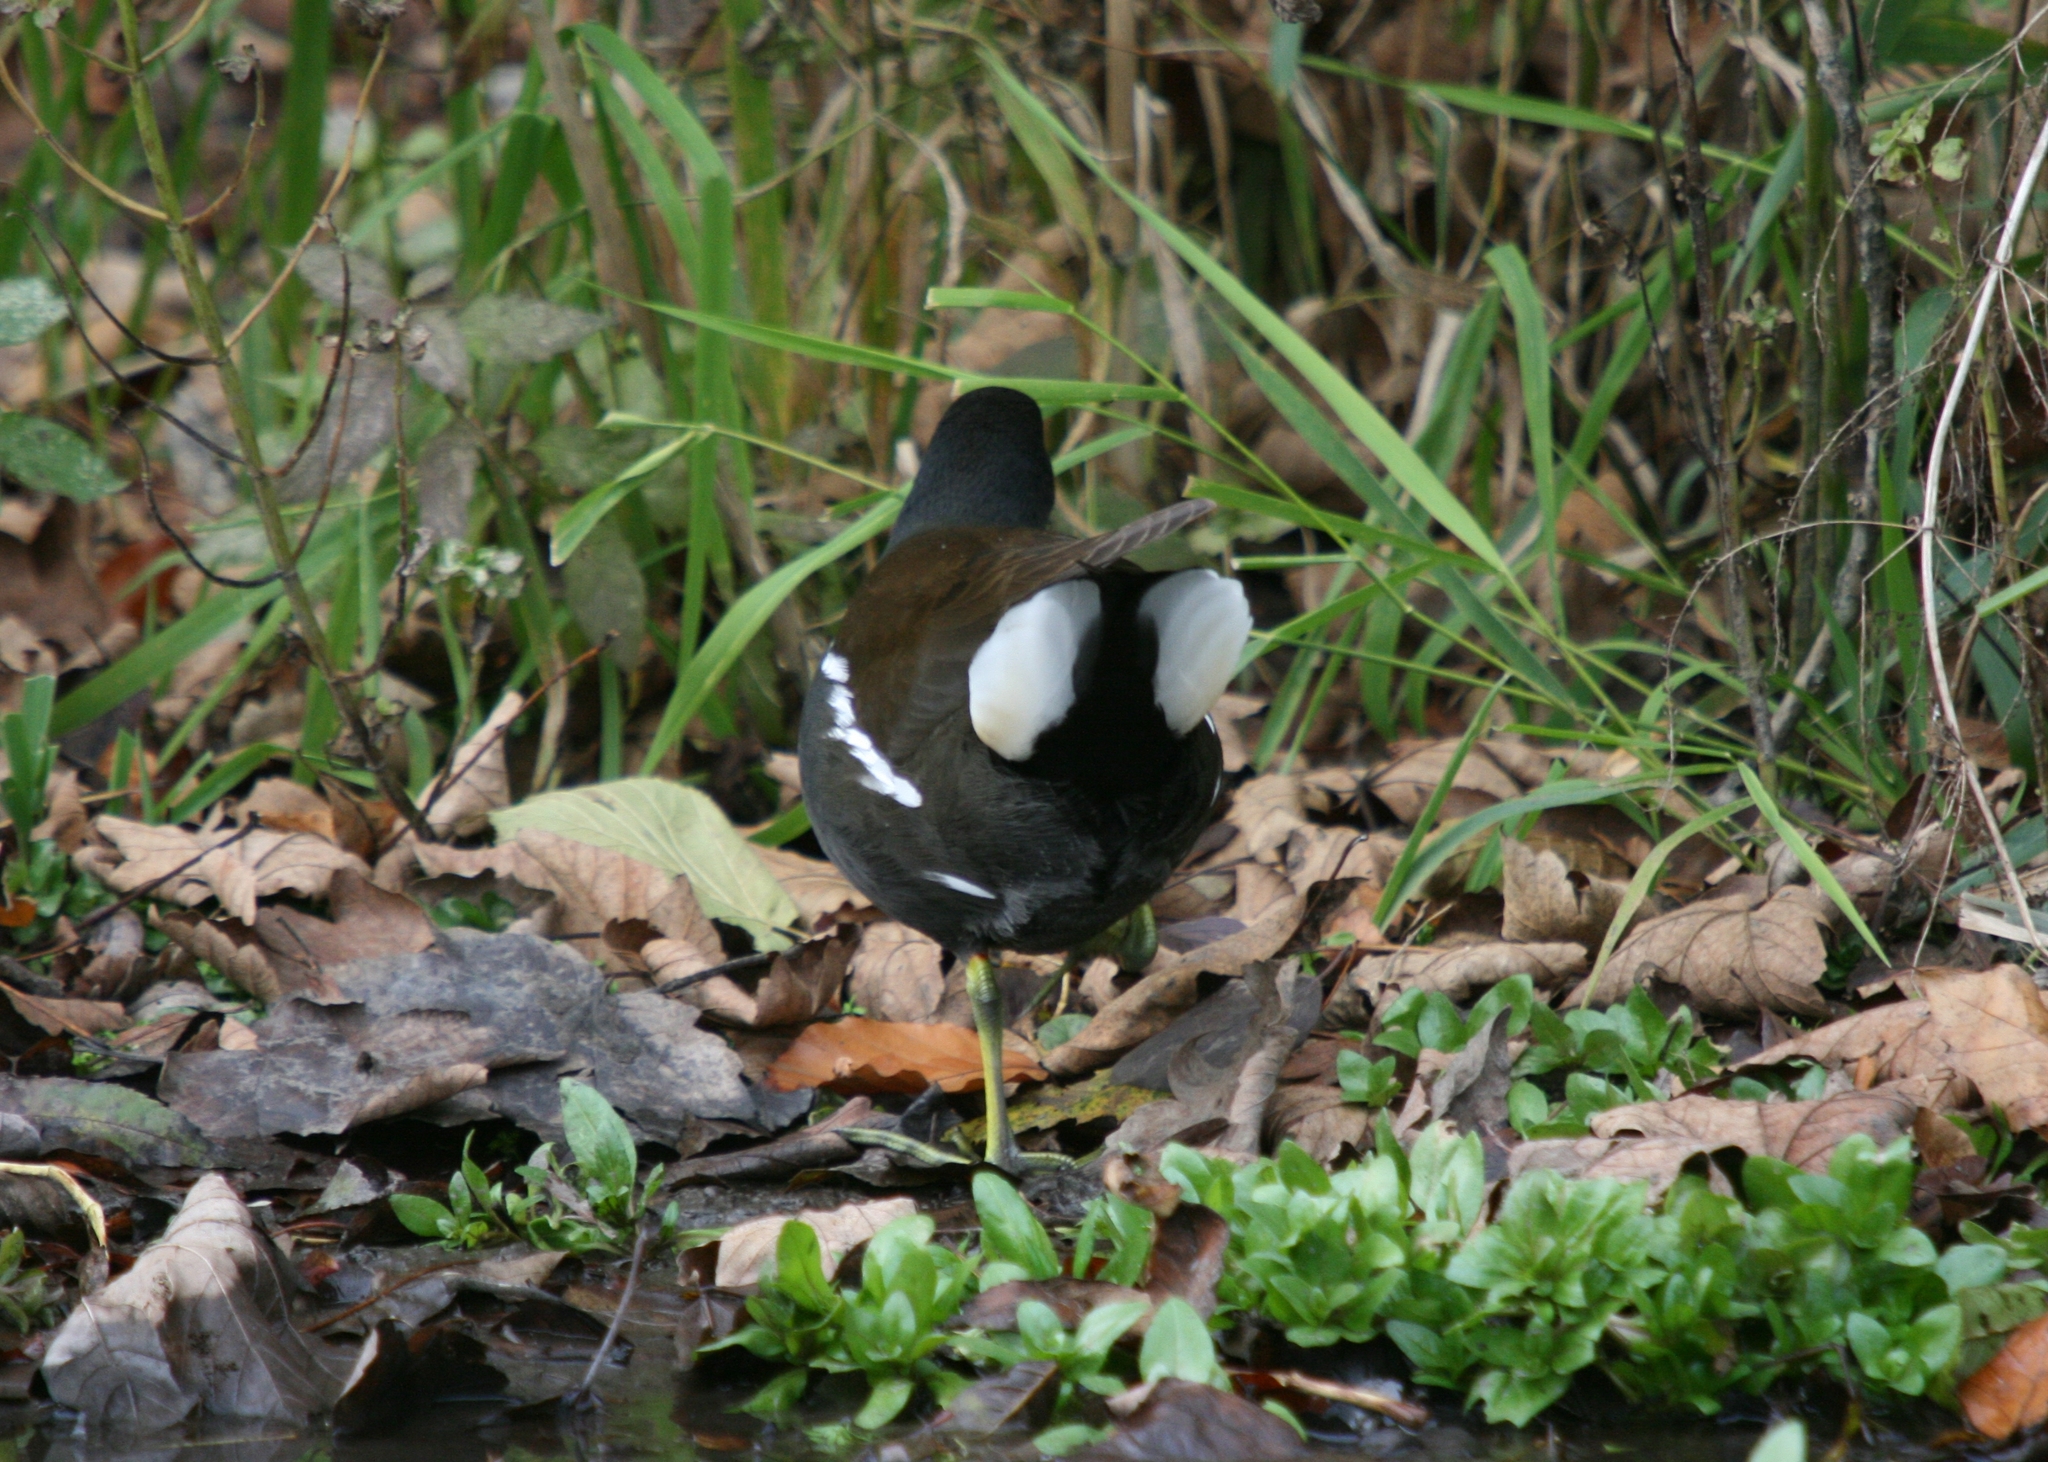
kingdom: Animalia
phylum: Chordata
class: Aves
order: Gruiformes
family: Rallidae
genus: Gallinula
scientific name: Gallinula chloropus
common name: Common moorhen
